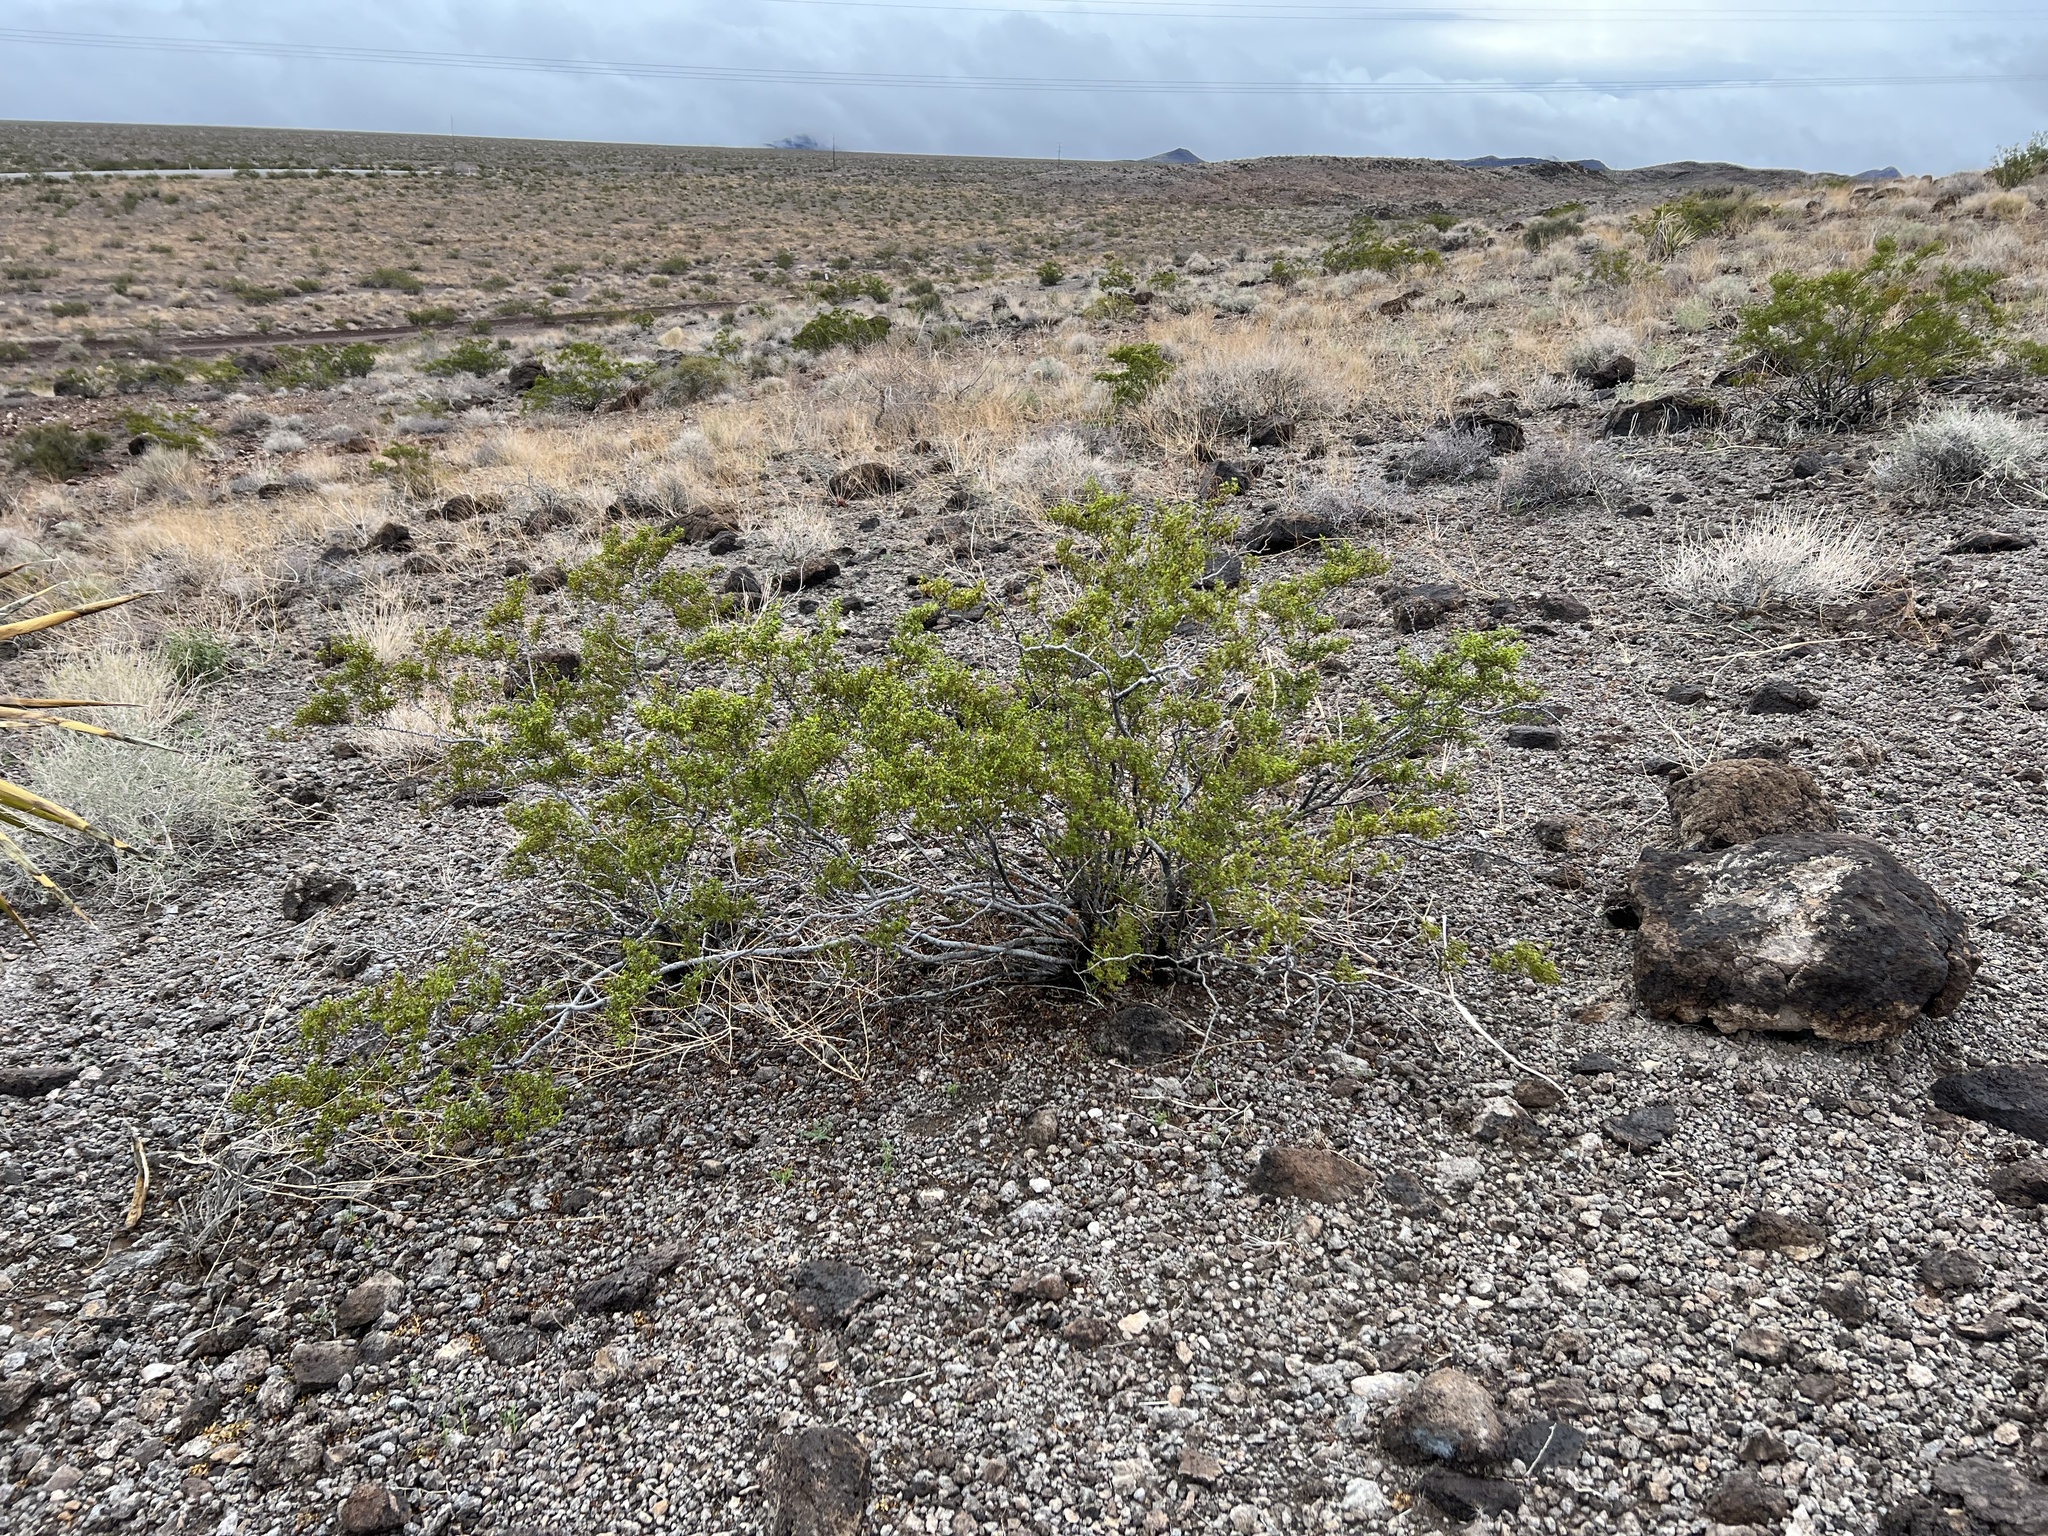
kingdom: Plantae
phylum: Tracheophyta
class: Magnoliopsida
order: Zygophyllales
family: Zygophyllaceae
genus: Larrea
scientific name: Larrea tridentata
